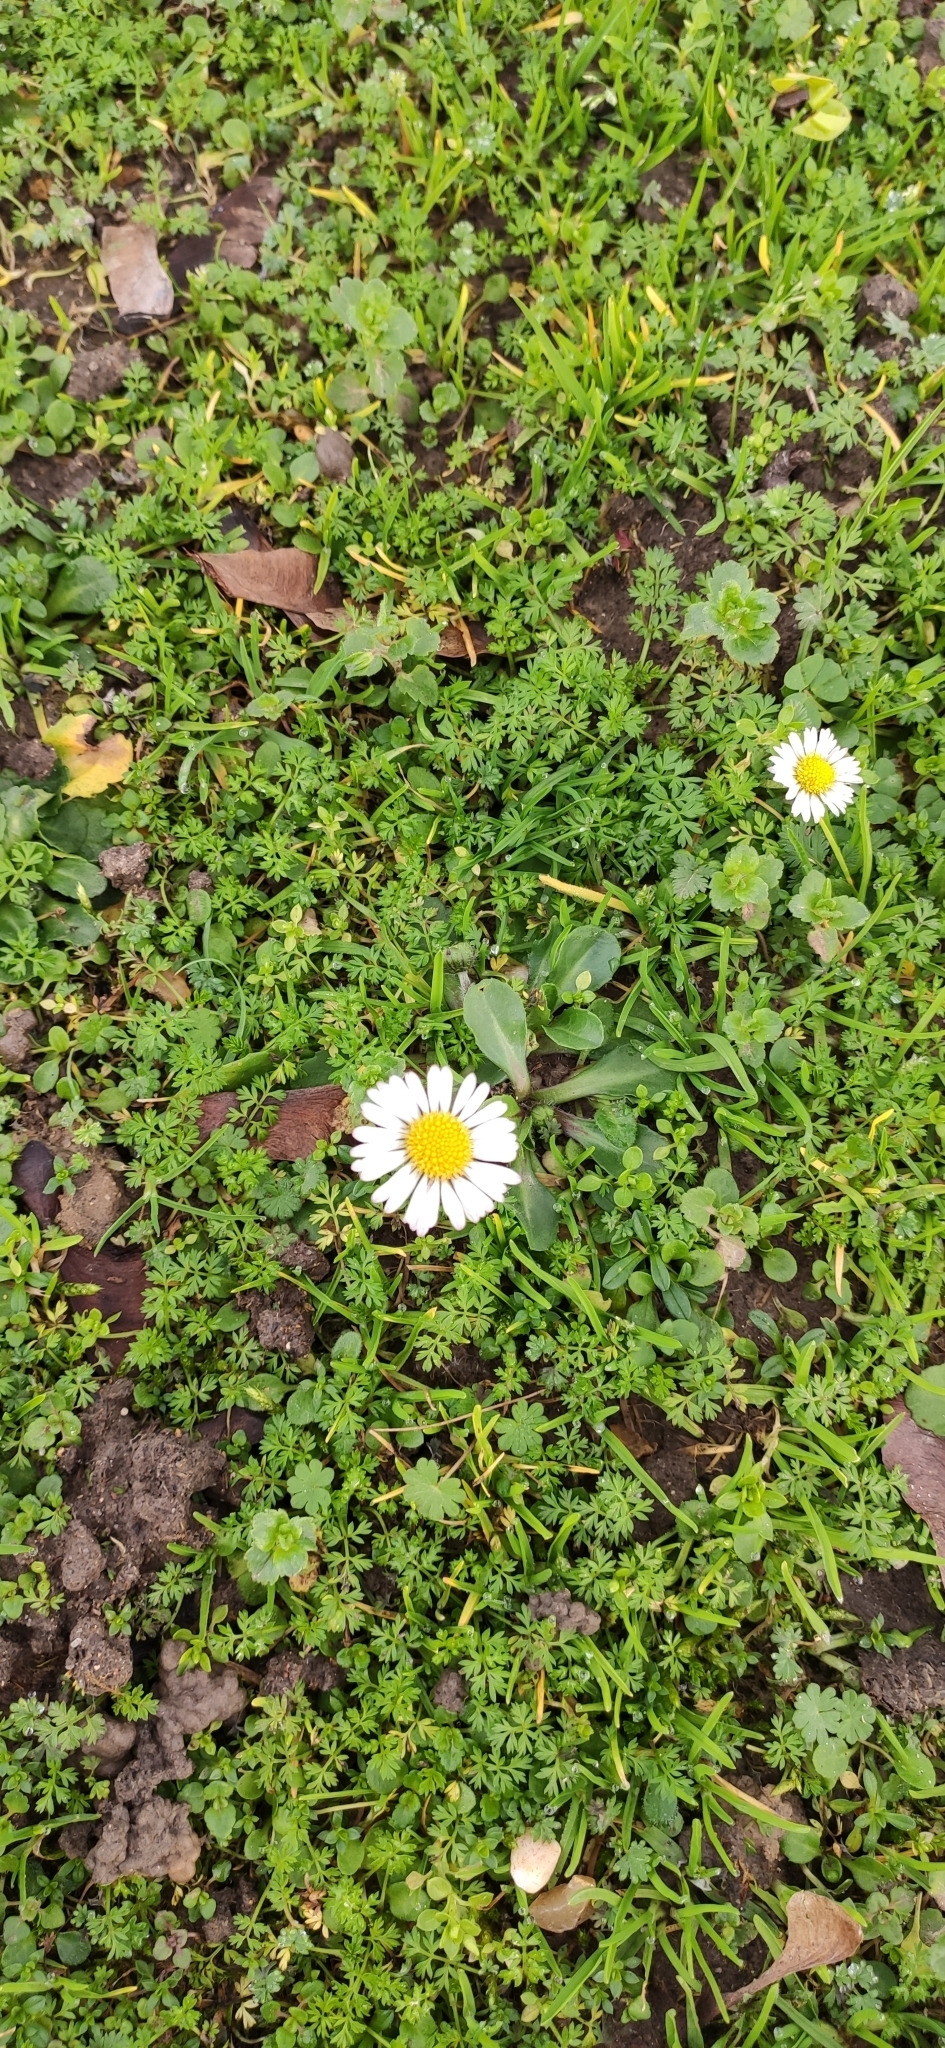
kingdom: Plantae
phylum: Tracheophyta
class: Magnoliopsida
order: Asterales
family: Asteraceae
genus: Bellis
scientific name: Bellis perennis
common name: Lawndaisy
